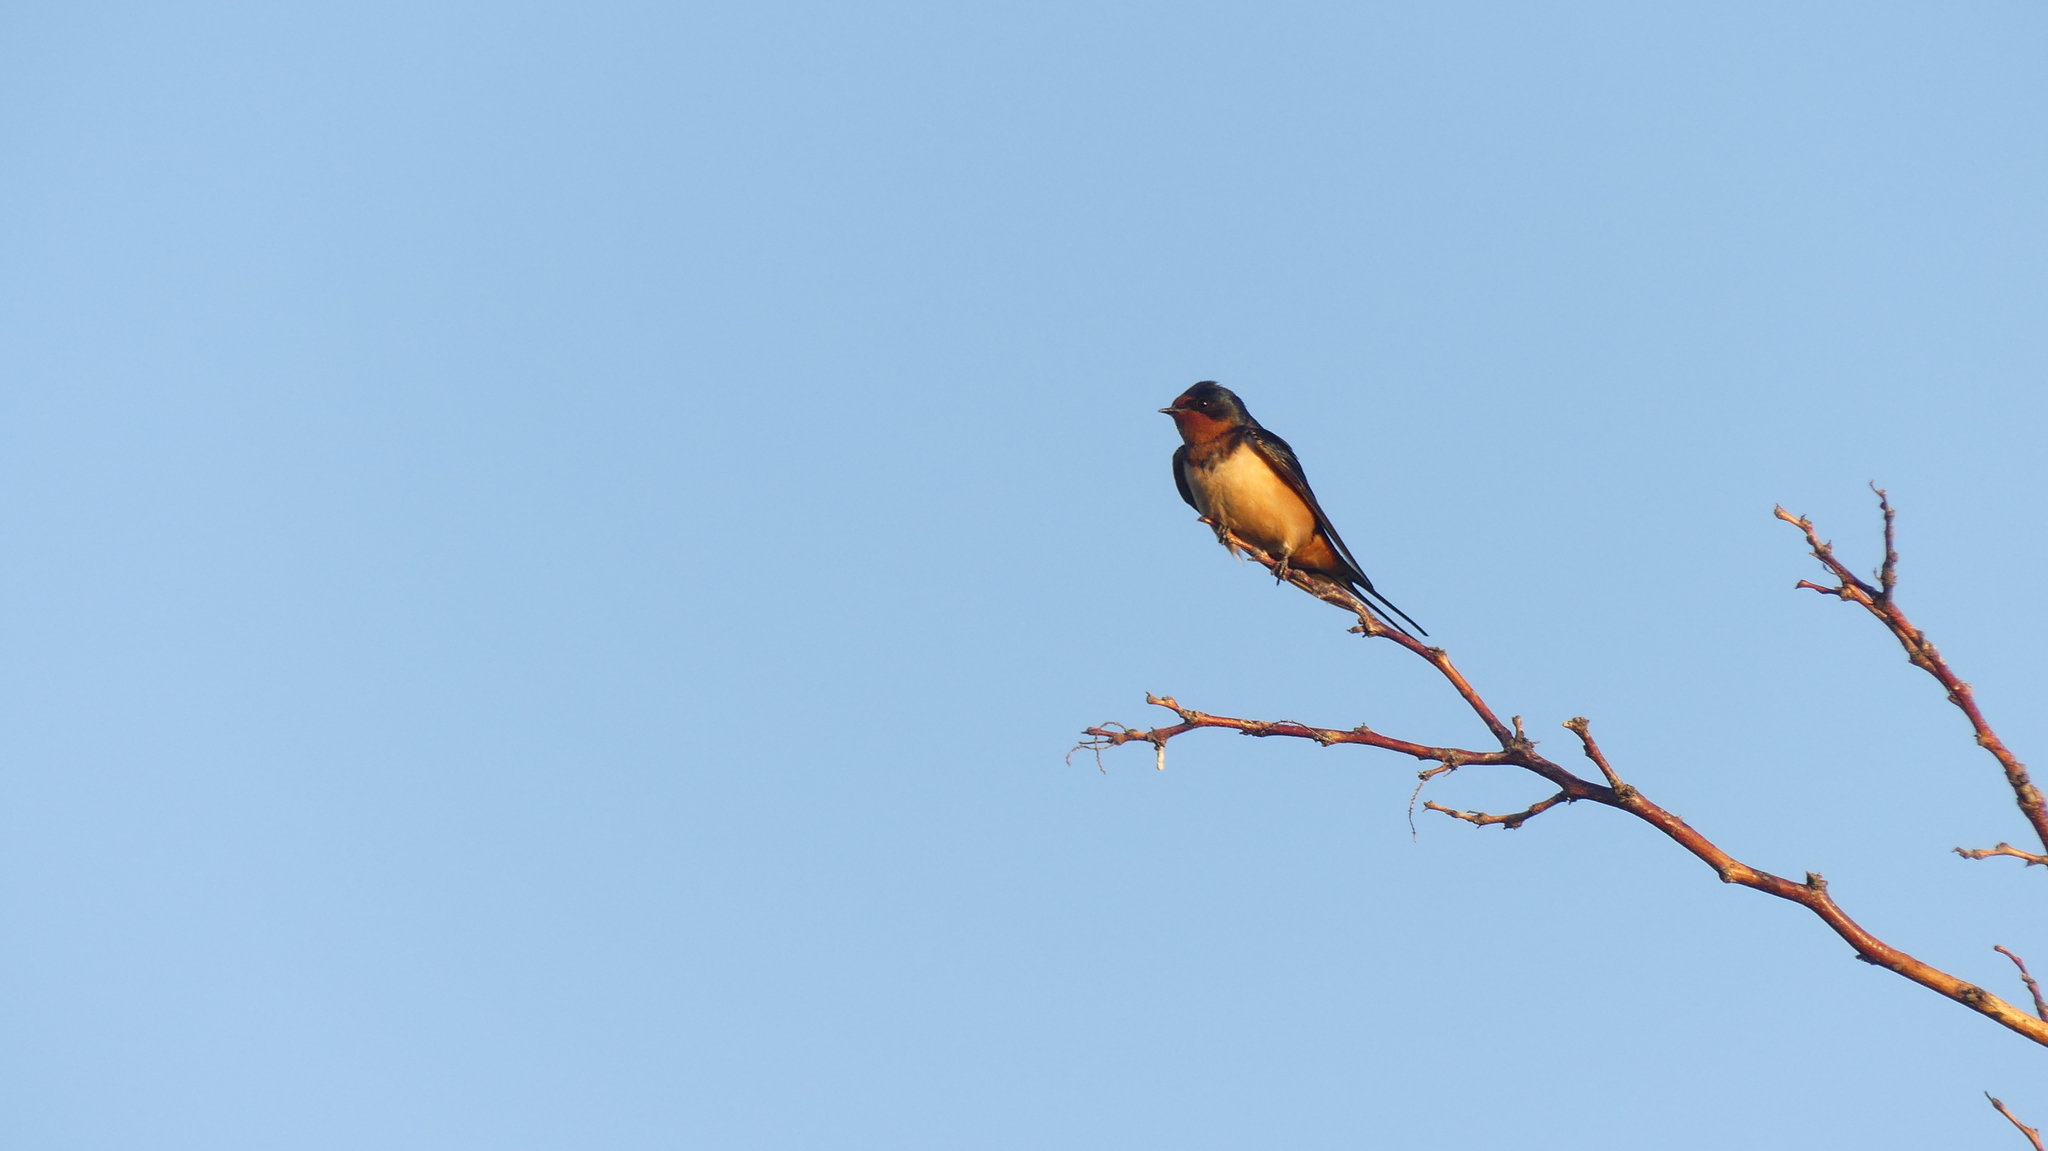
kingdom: Animalia
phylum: Chordata
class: Aves
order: Passeriformes
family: Hirundinidae
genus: Hirundo
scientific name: Hirundo rustica
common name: Barn swallow
